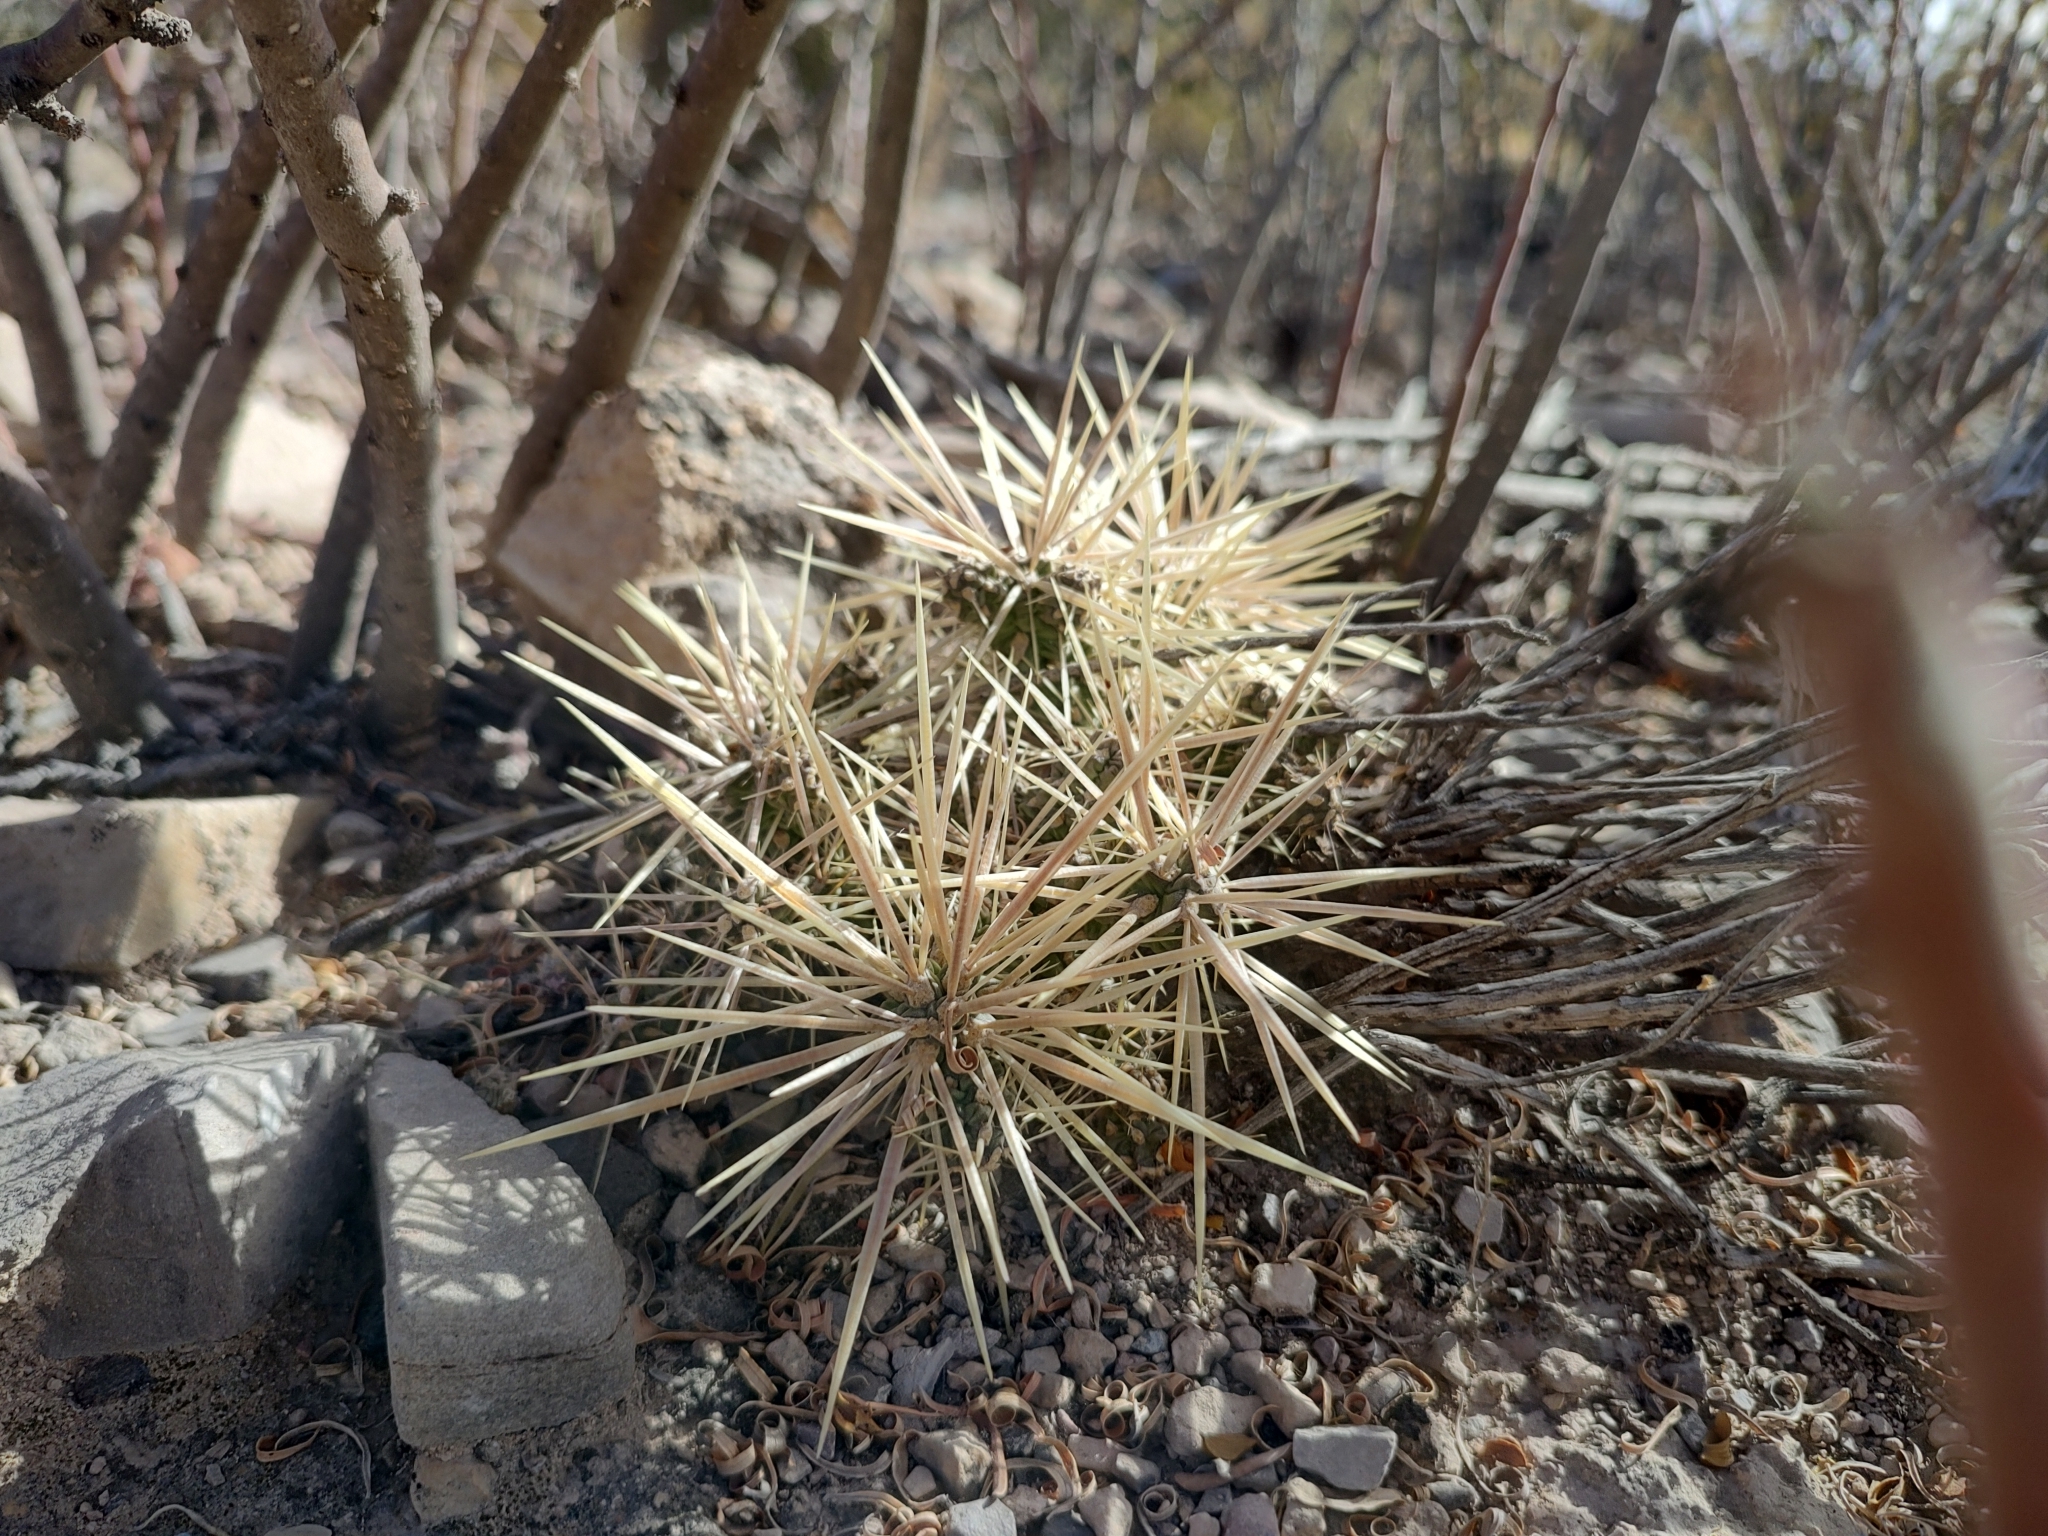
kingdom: Plantae
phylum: Tracheophyta
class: Magnoliopsida
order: Caryophyllales
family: Cactaceae
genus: Cylindropuntia
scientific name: Cylindropuntia tunicata
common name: Sheathed cholla
